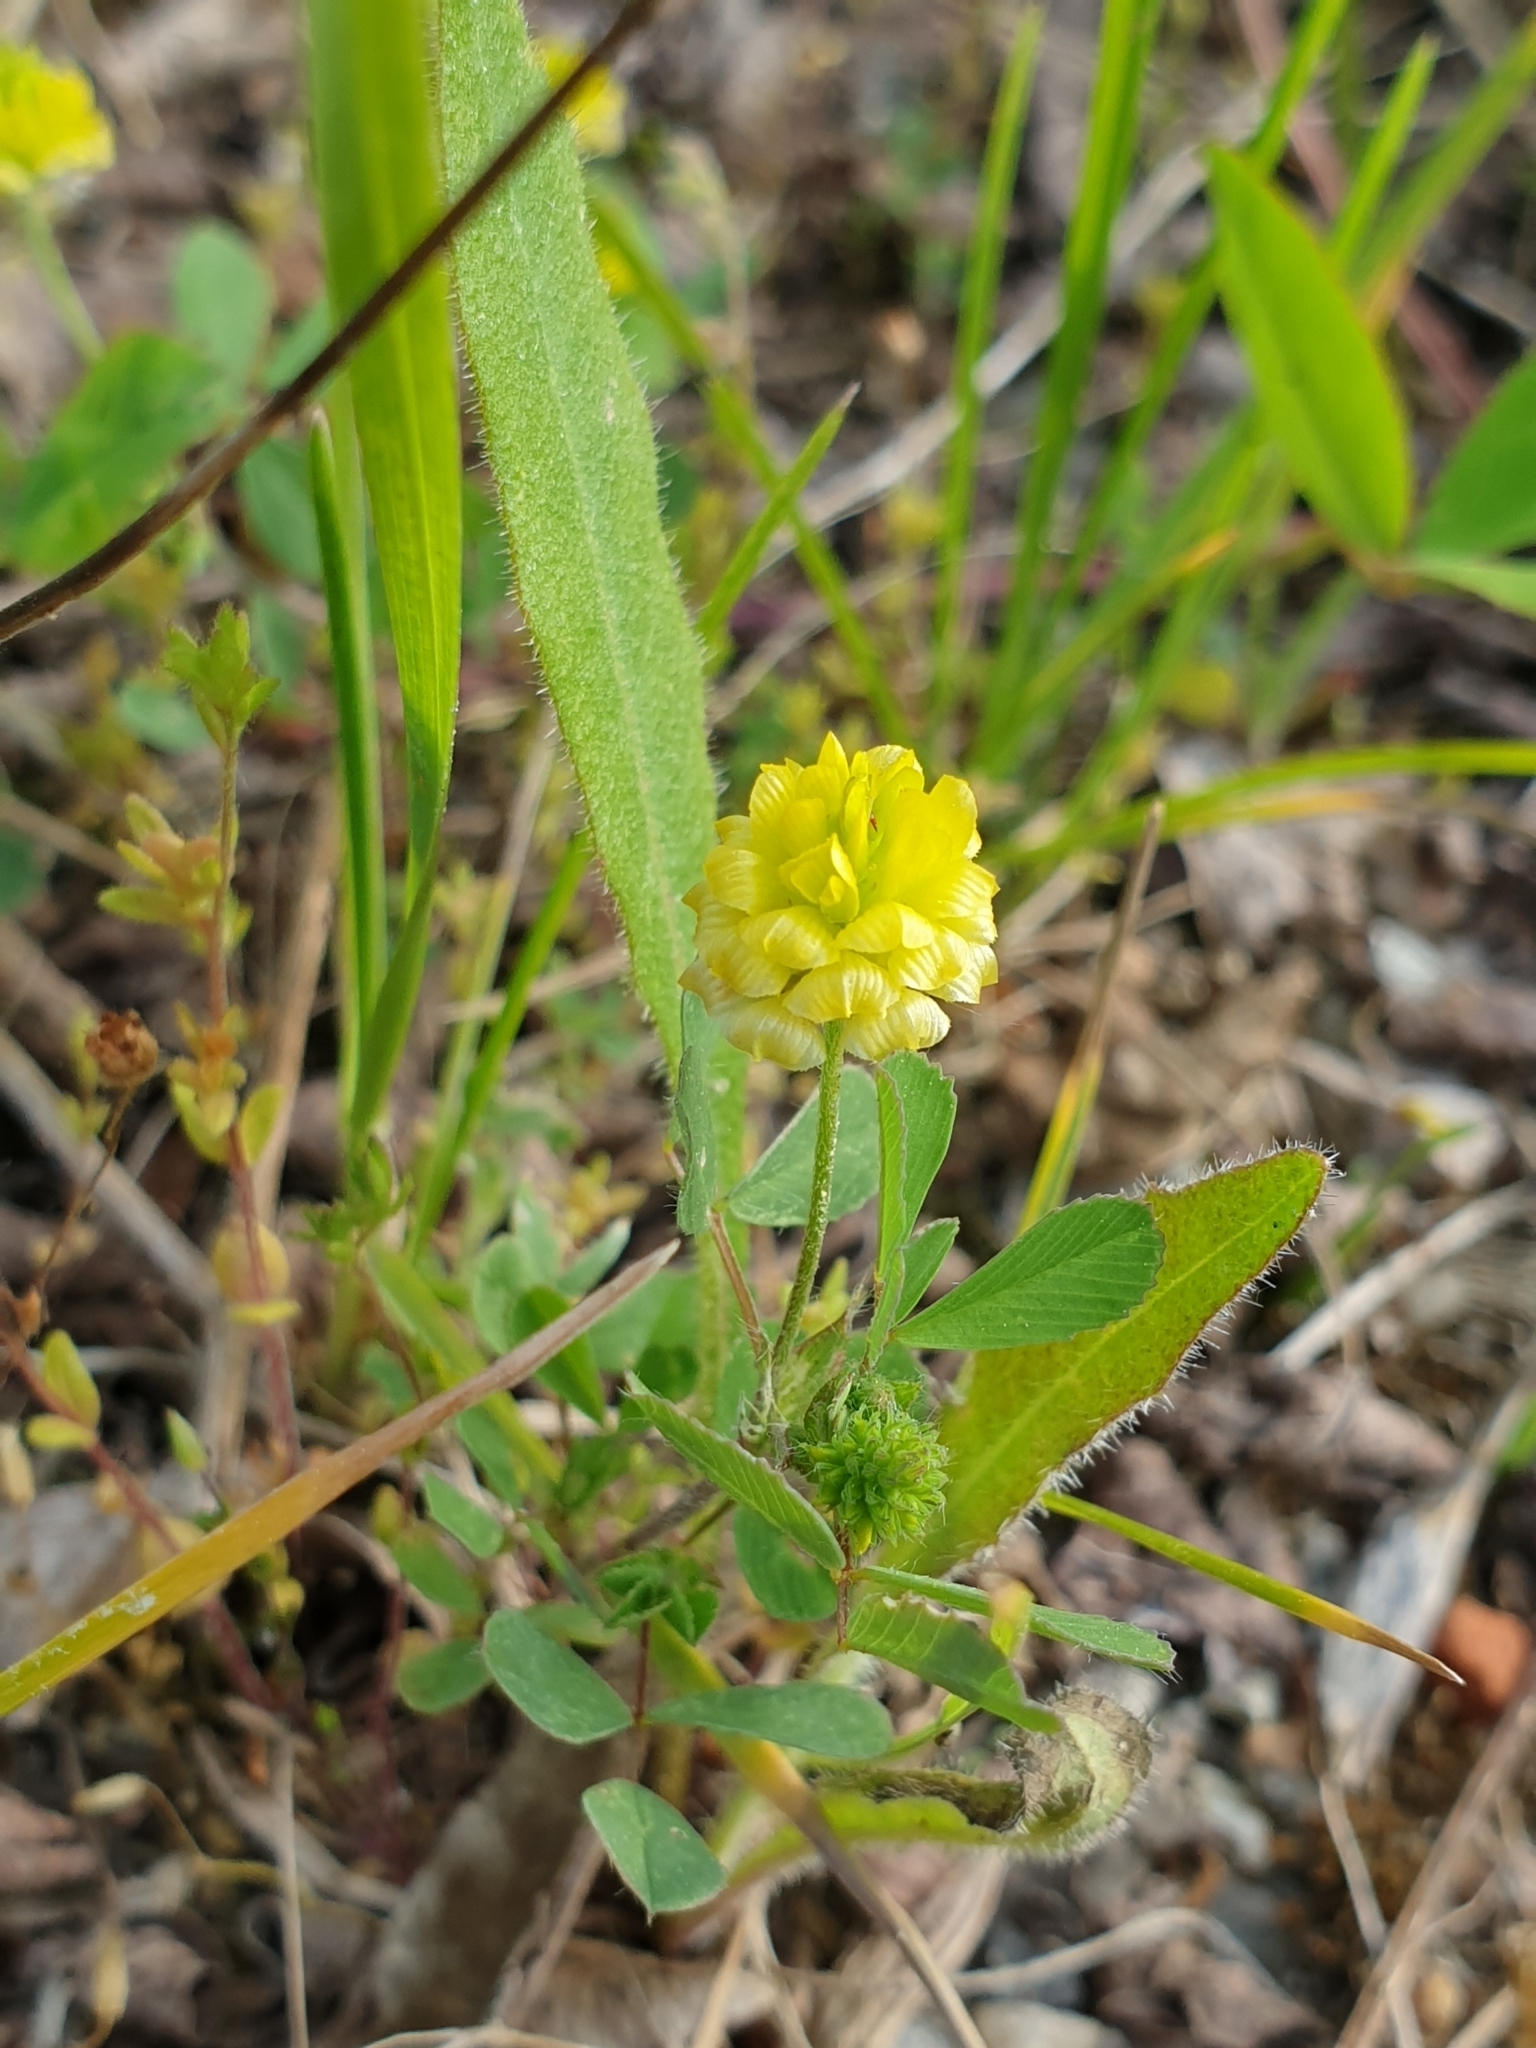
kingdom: Plantae
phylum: Tracheophyta
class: Magnoliopsida
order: Fabales
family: Fabaceae
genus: Trifolium
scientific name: Trifolium campestre
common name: Field clover
